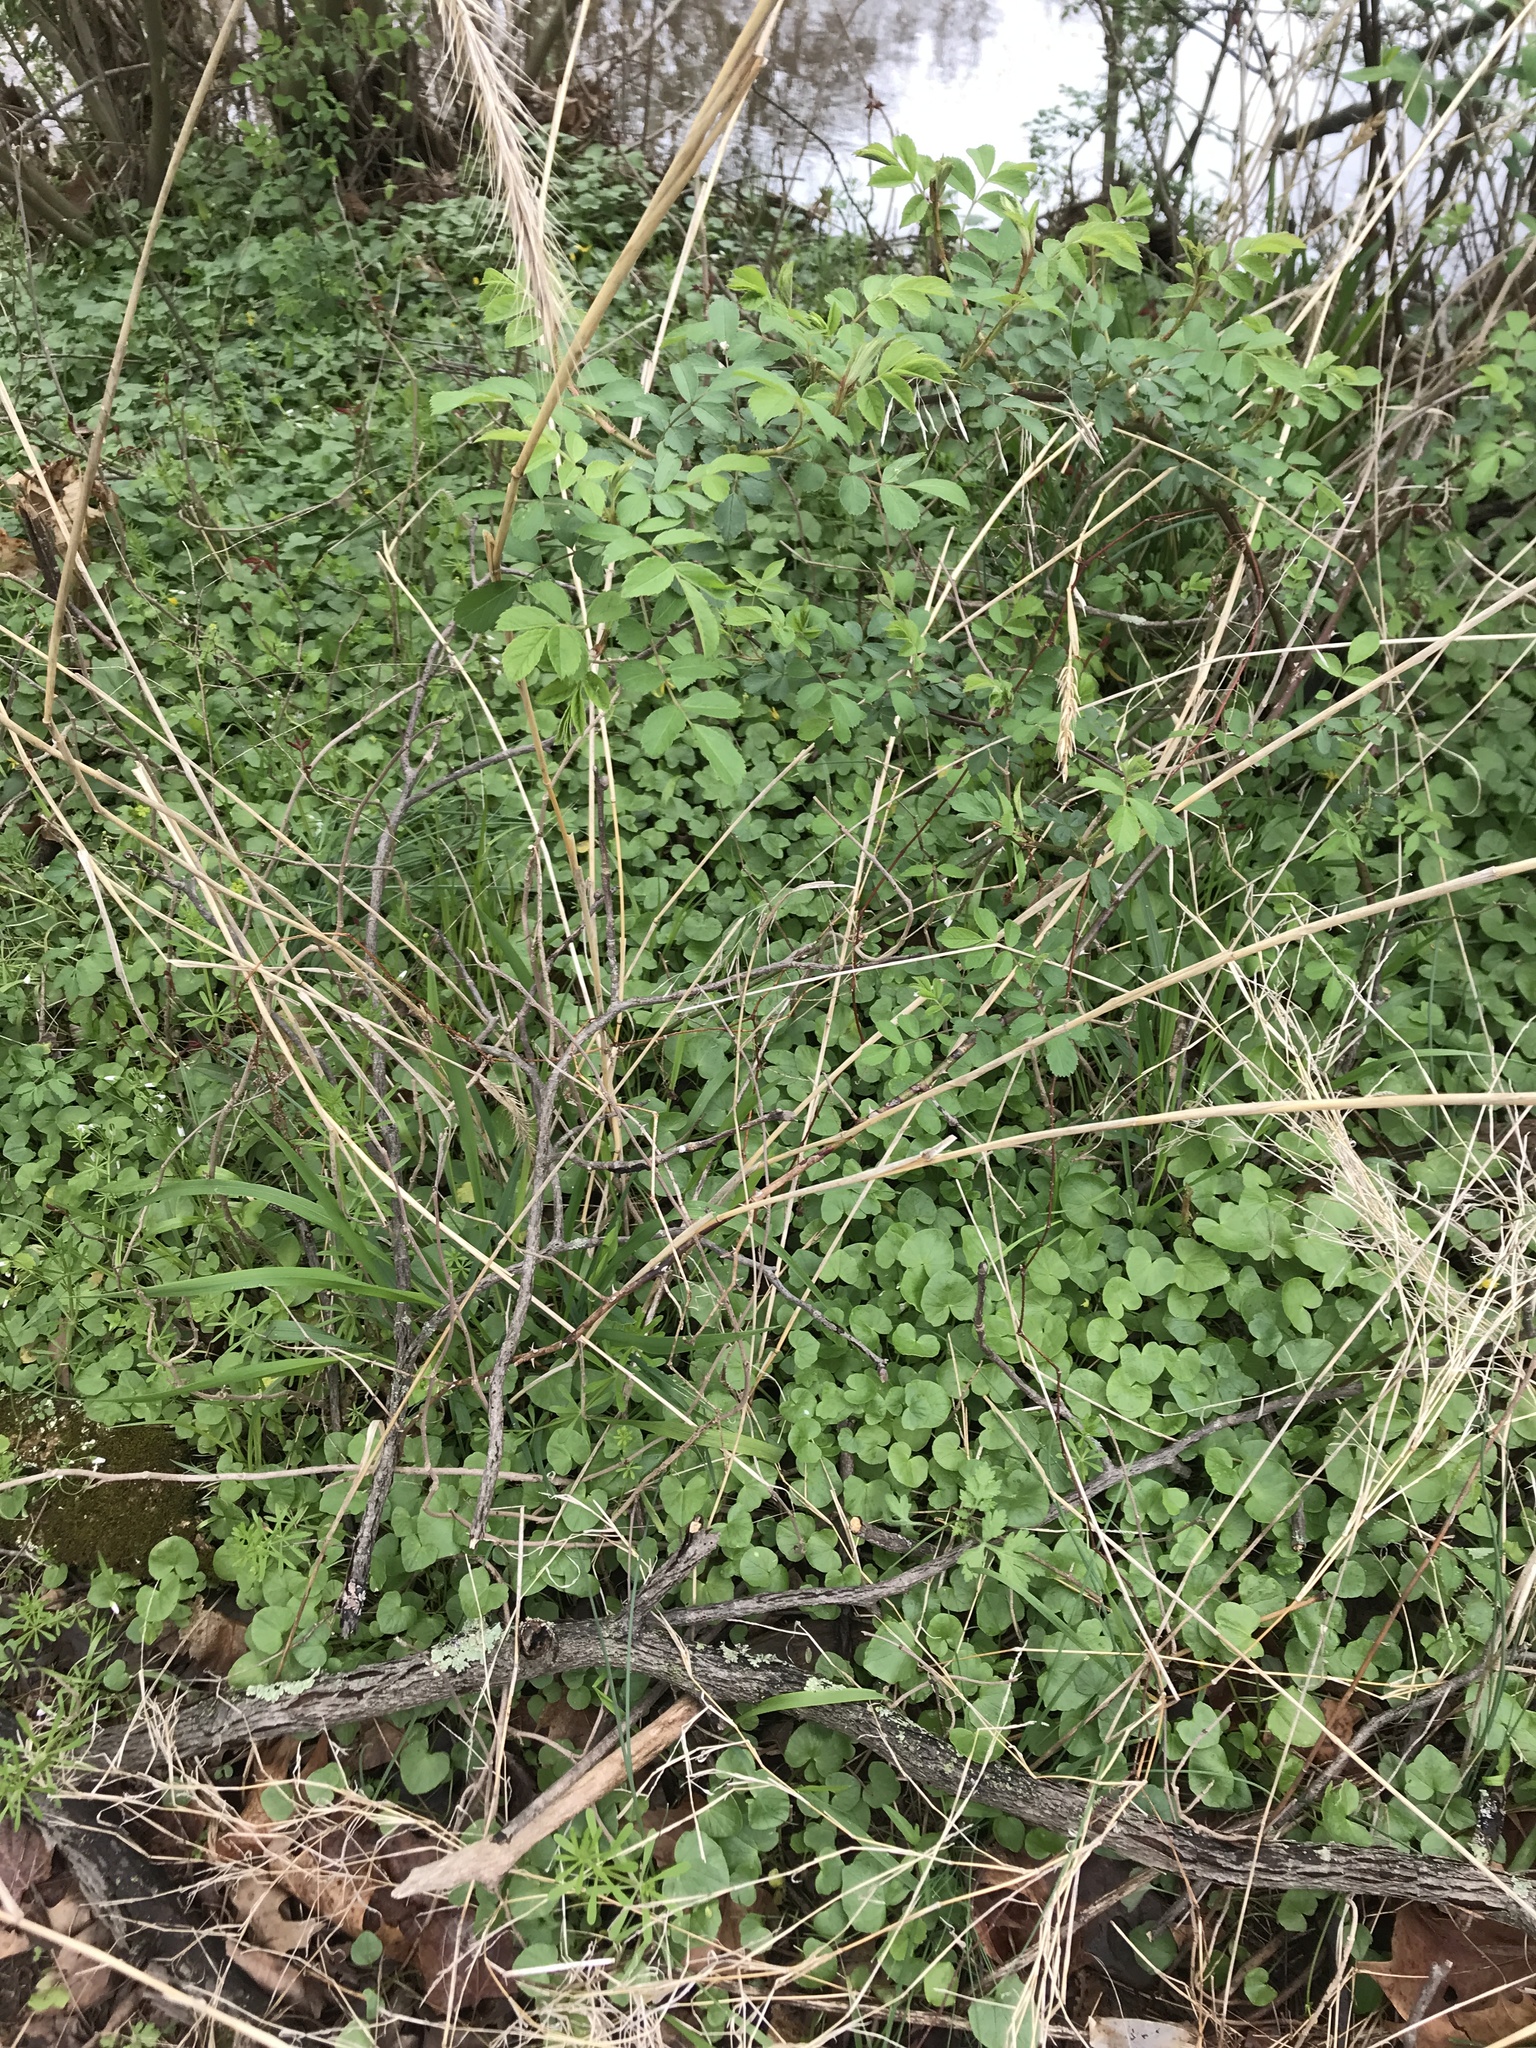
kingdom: Plantae
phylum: Tracheophyta
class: Liliopsida
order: Poales
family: Poaceae
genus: Elymus
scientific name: Elymus riparius
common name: Eastern riverbank wild rye
